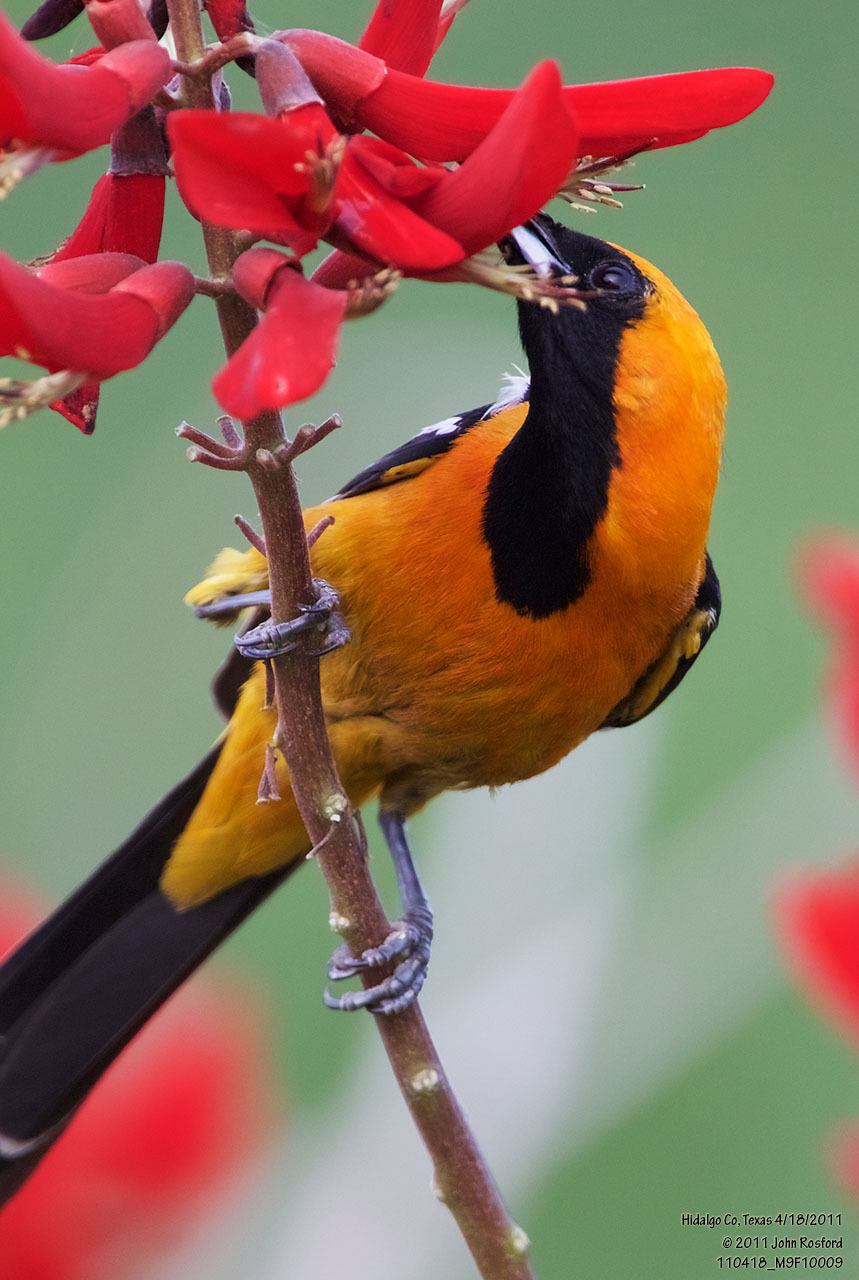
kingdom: Animalia
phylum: Chordata
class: Aves
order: Passeriformes
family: Icteridae
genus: Icterus
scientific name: Icterus cucullatus
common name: Hooded oriole
